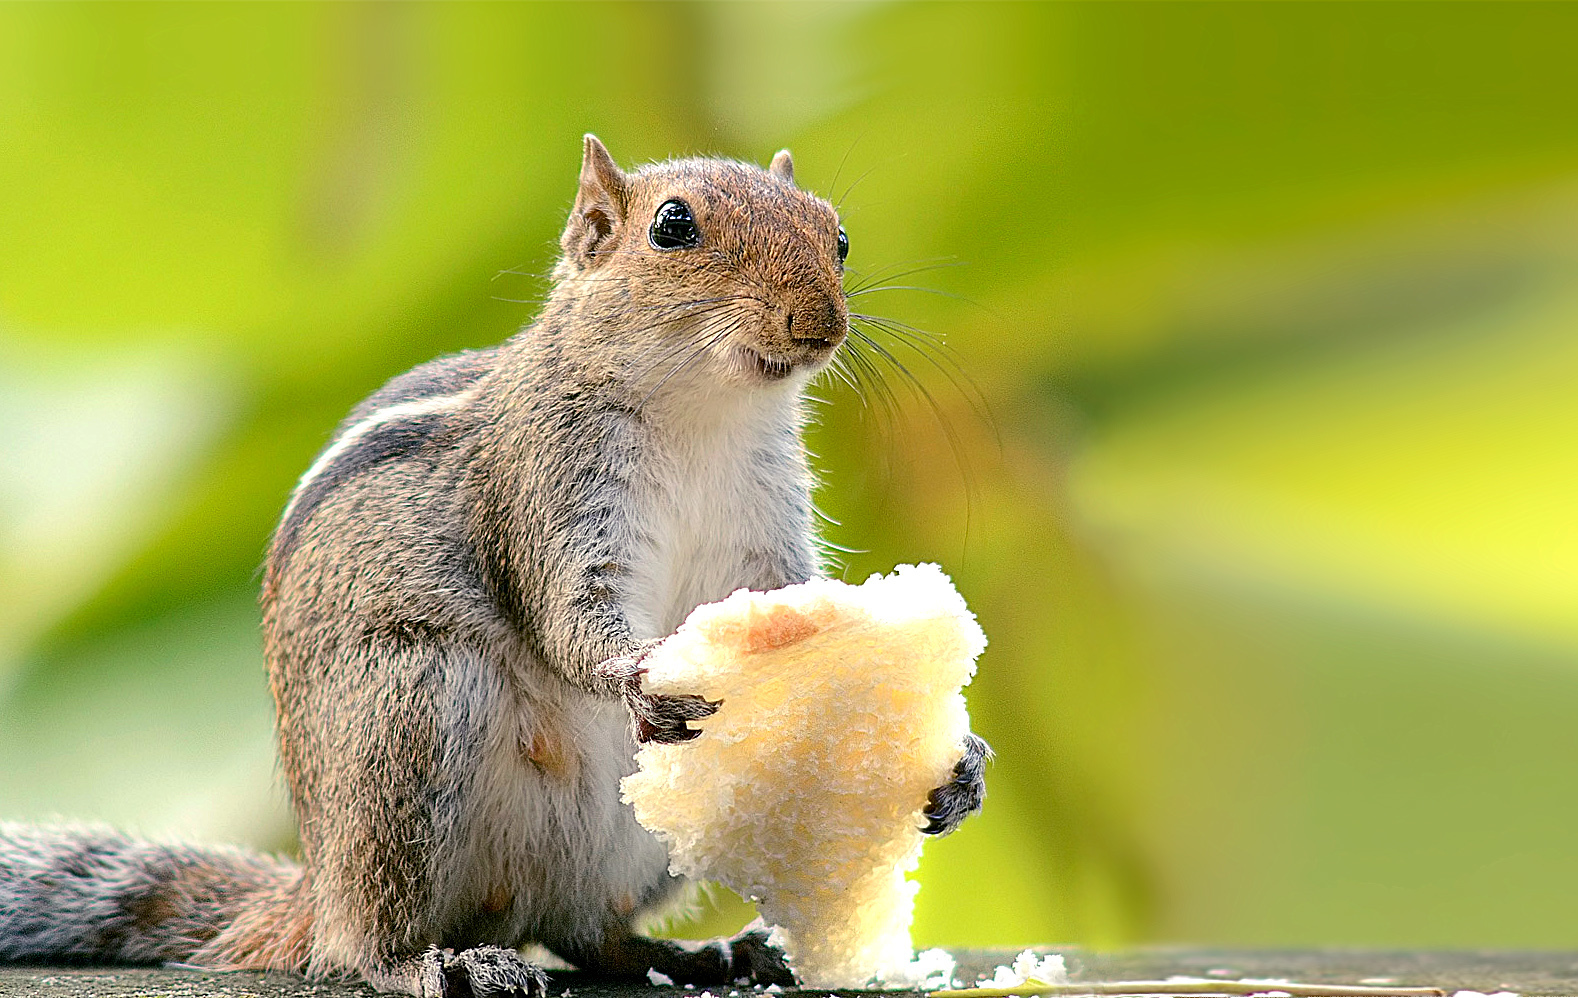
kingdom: Animalia
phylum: Chordata
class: Mammalia
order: Rodentia
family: Sciuridae
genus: Funambulus
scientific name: Funambulus tristriatus
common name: Jungle palm squirrel
